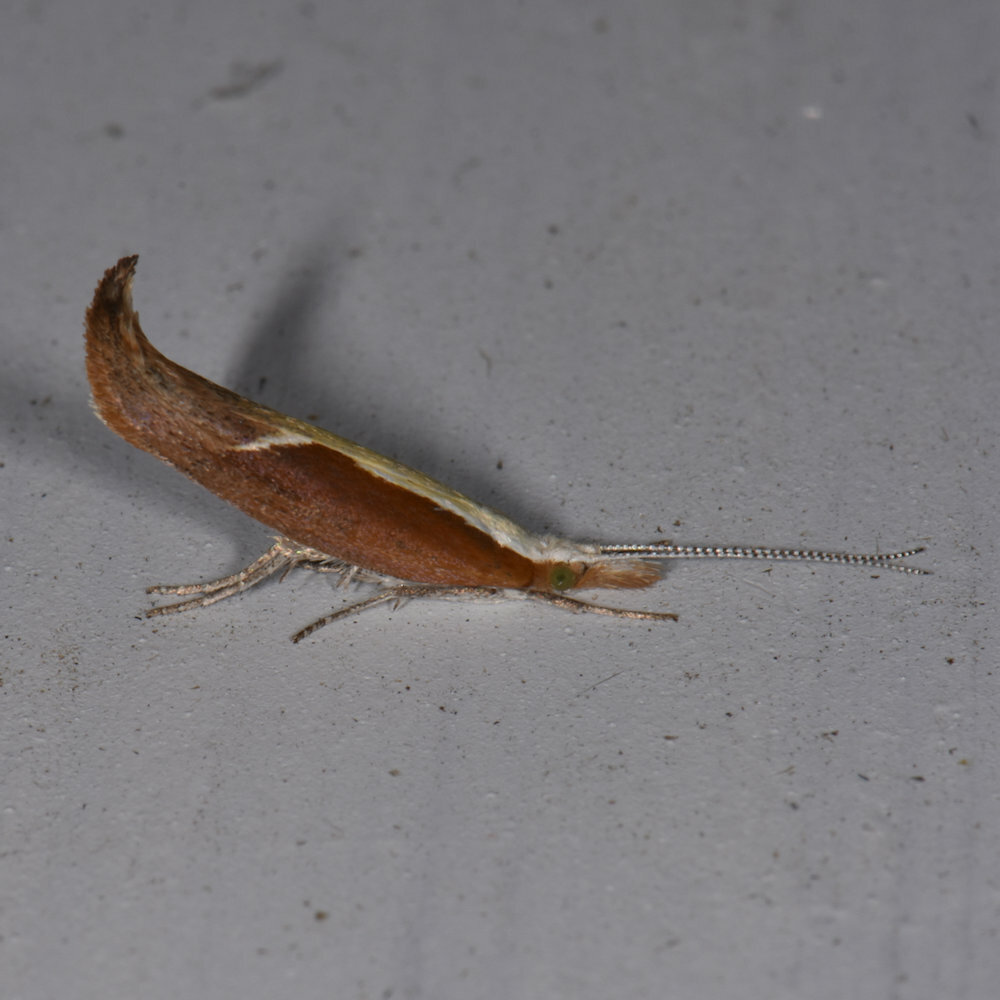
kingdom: Animalia
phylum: Arthropoda
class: Insecta
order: Lepidoptera
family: Ypsolophidae
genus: Ypsolopha
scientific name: Ypsolopha dentella
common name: Honeysuckle moth
